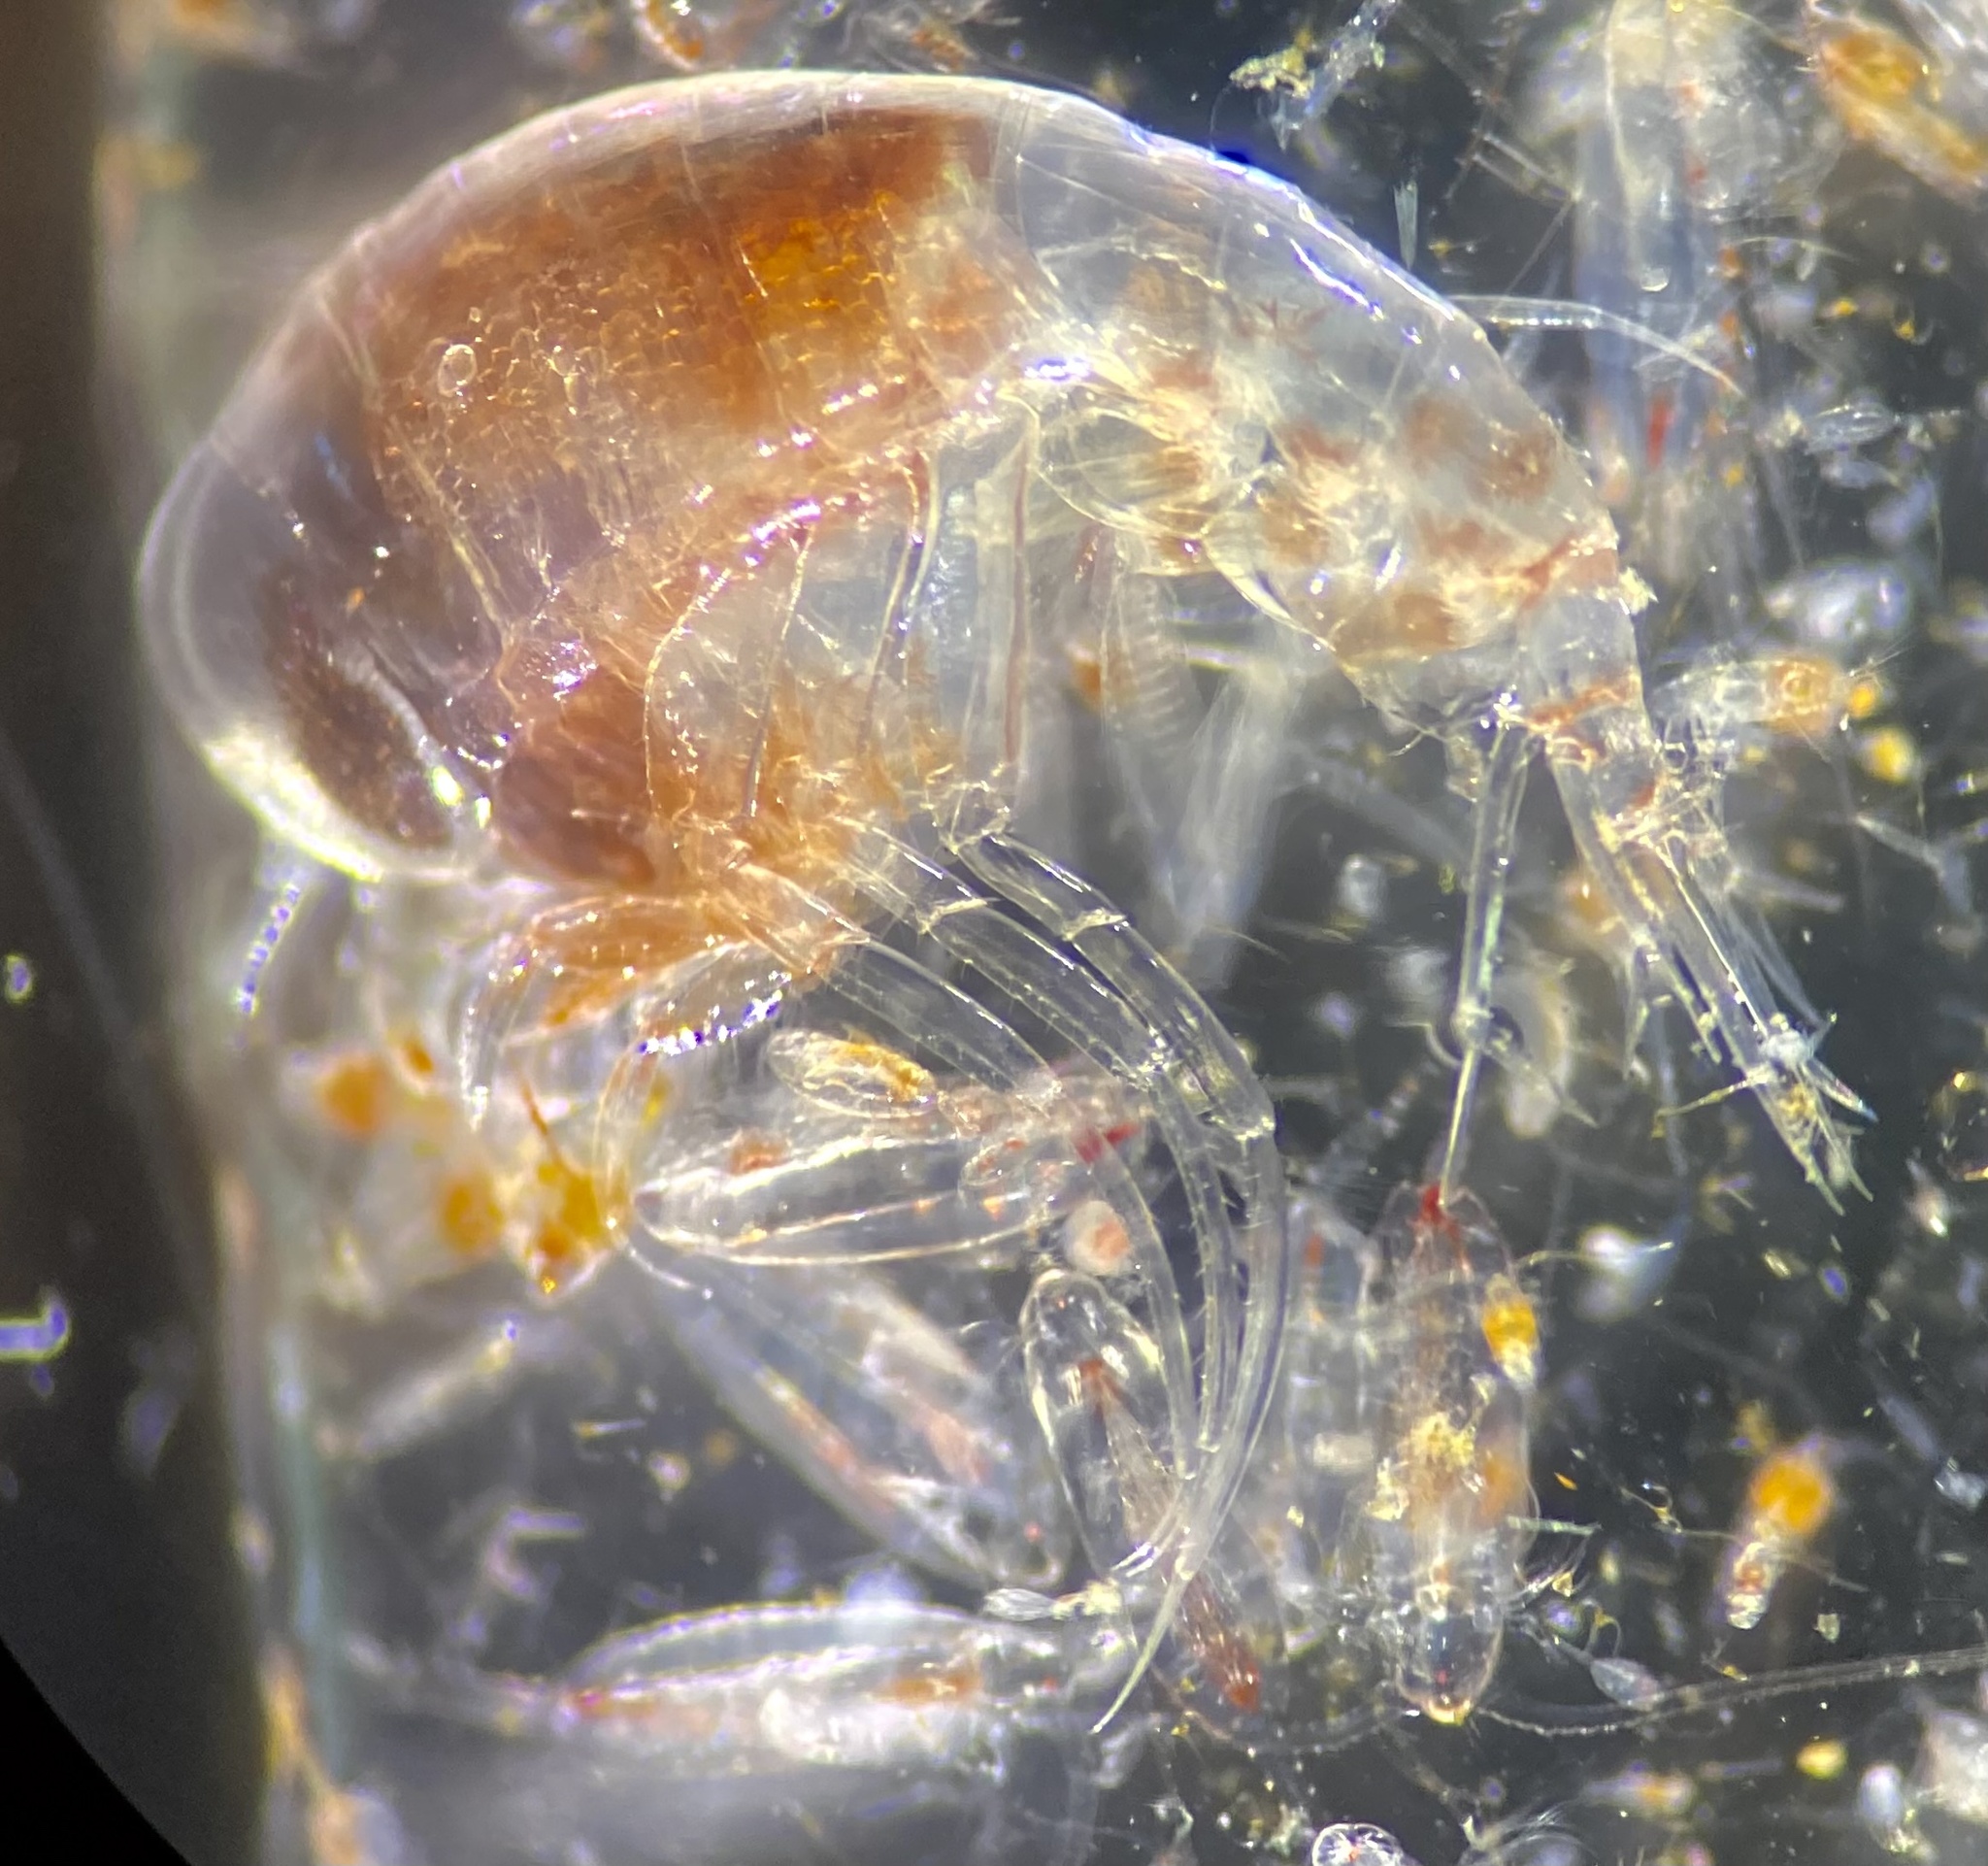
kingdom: Animalia
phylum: Arthropoda
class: Malacostraca
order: Amphipoda
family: Hyperiidae
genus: Themisto
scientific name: Themisto abyssorum
